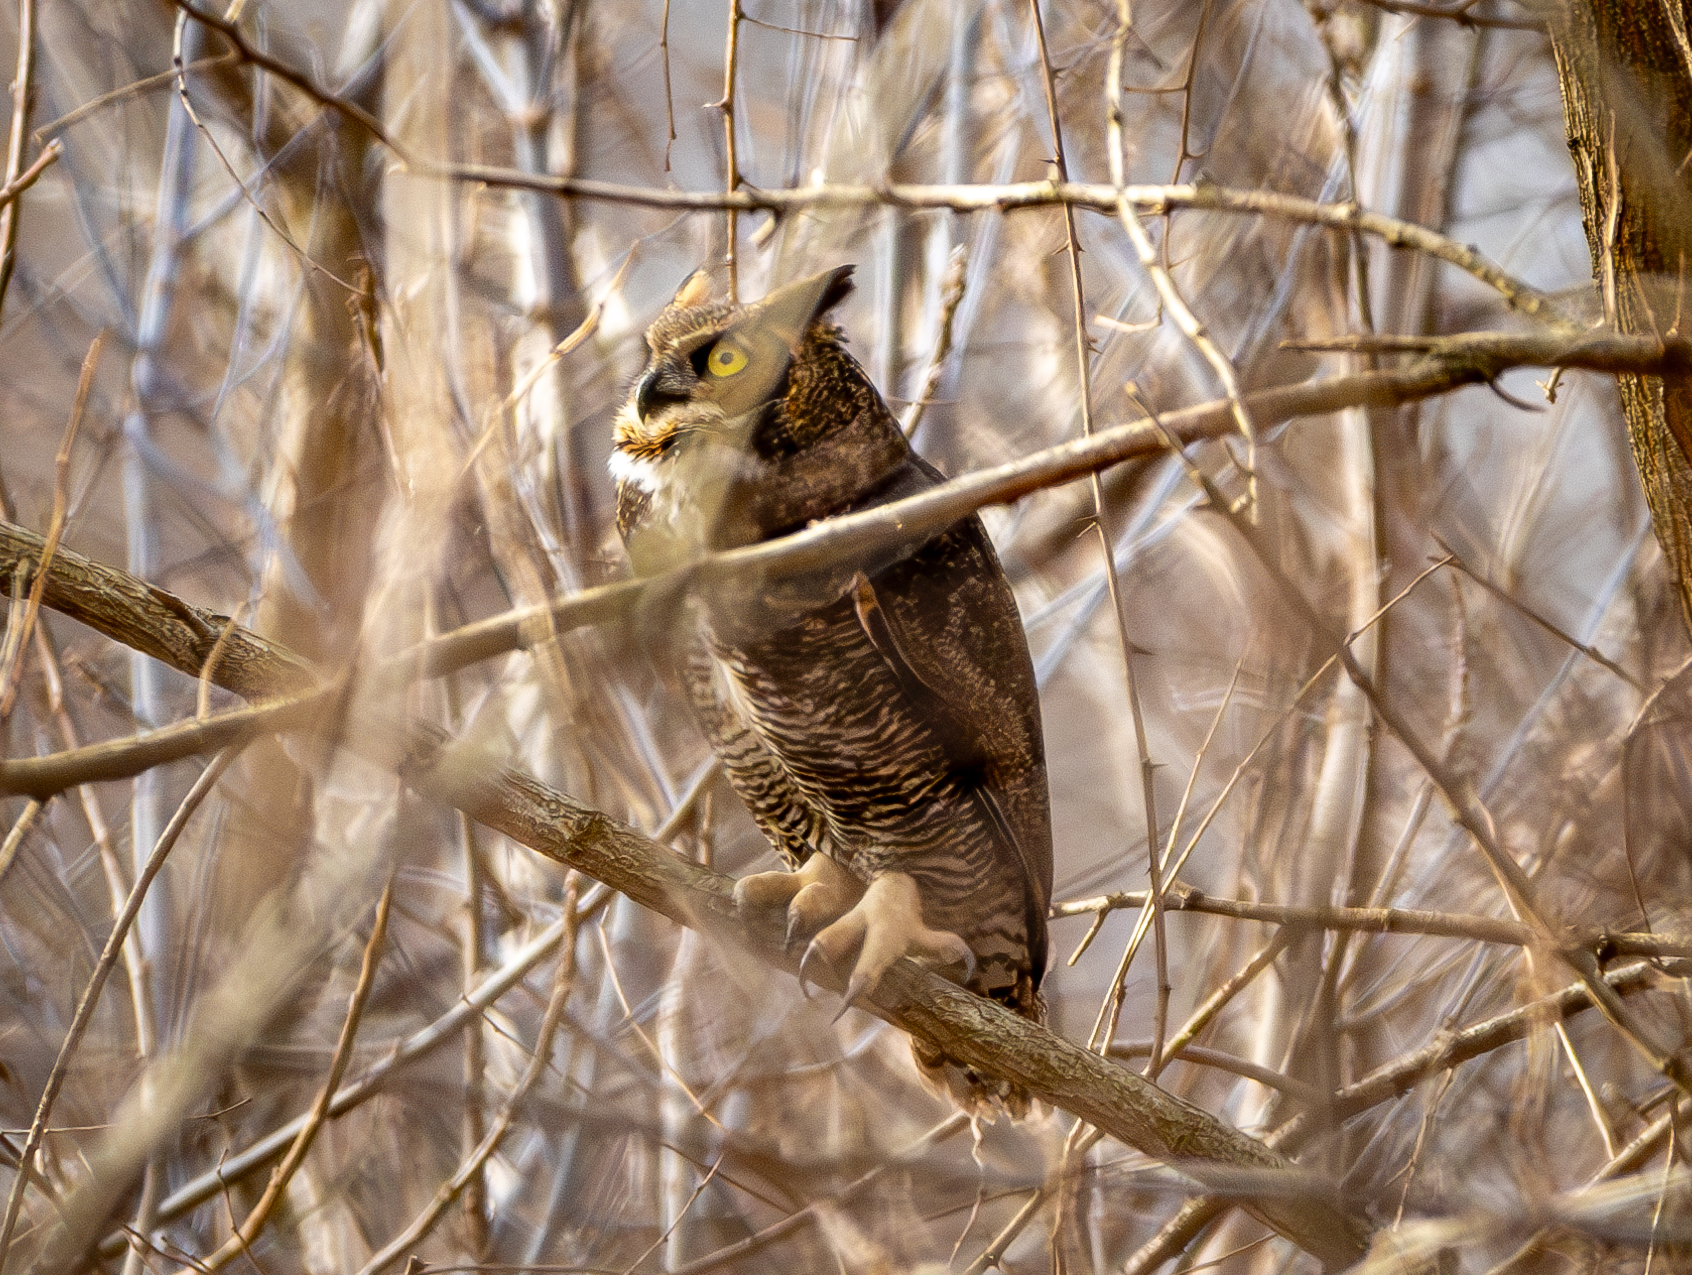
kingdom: Animalia
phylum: Chordata
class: Aves
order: Strigiformes
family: Strigidae
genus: Bubo
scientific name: Bubo virginianus
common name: Great horned owl
